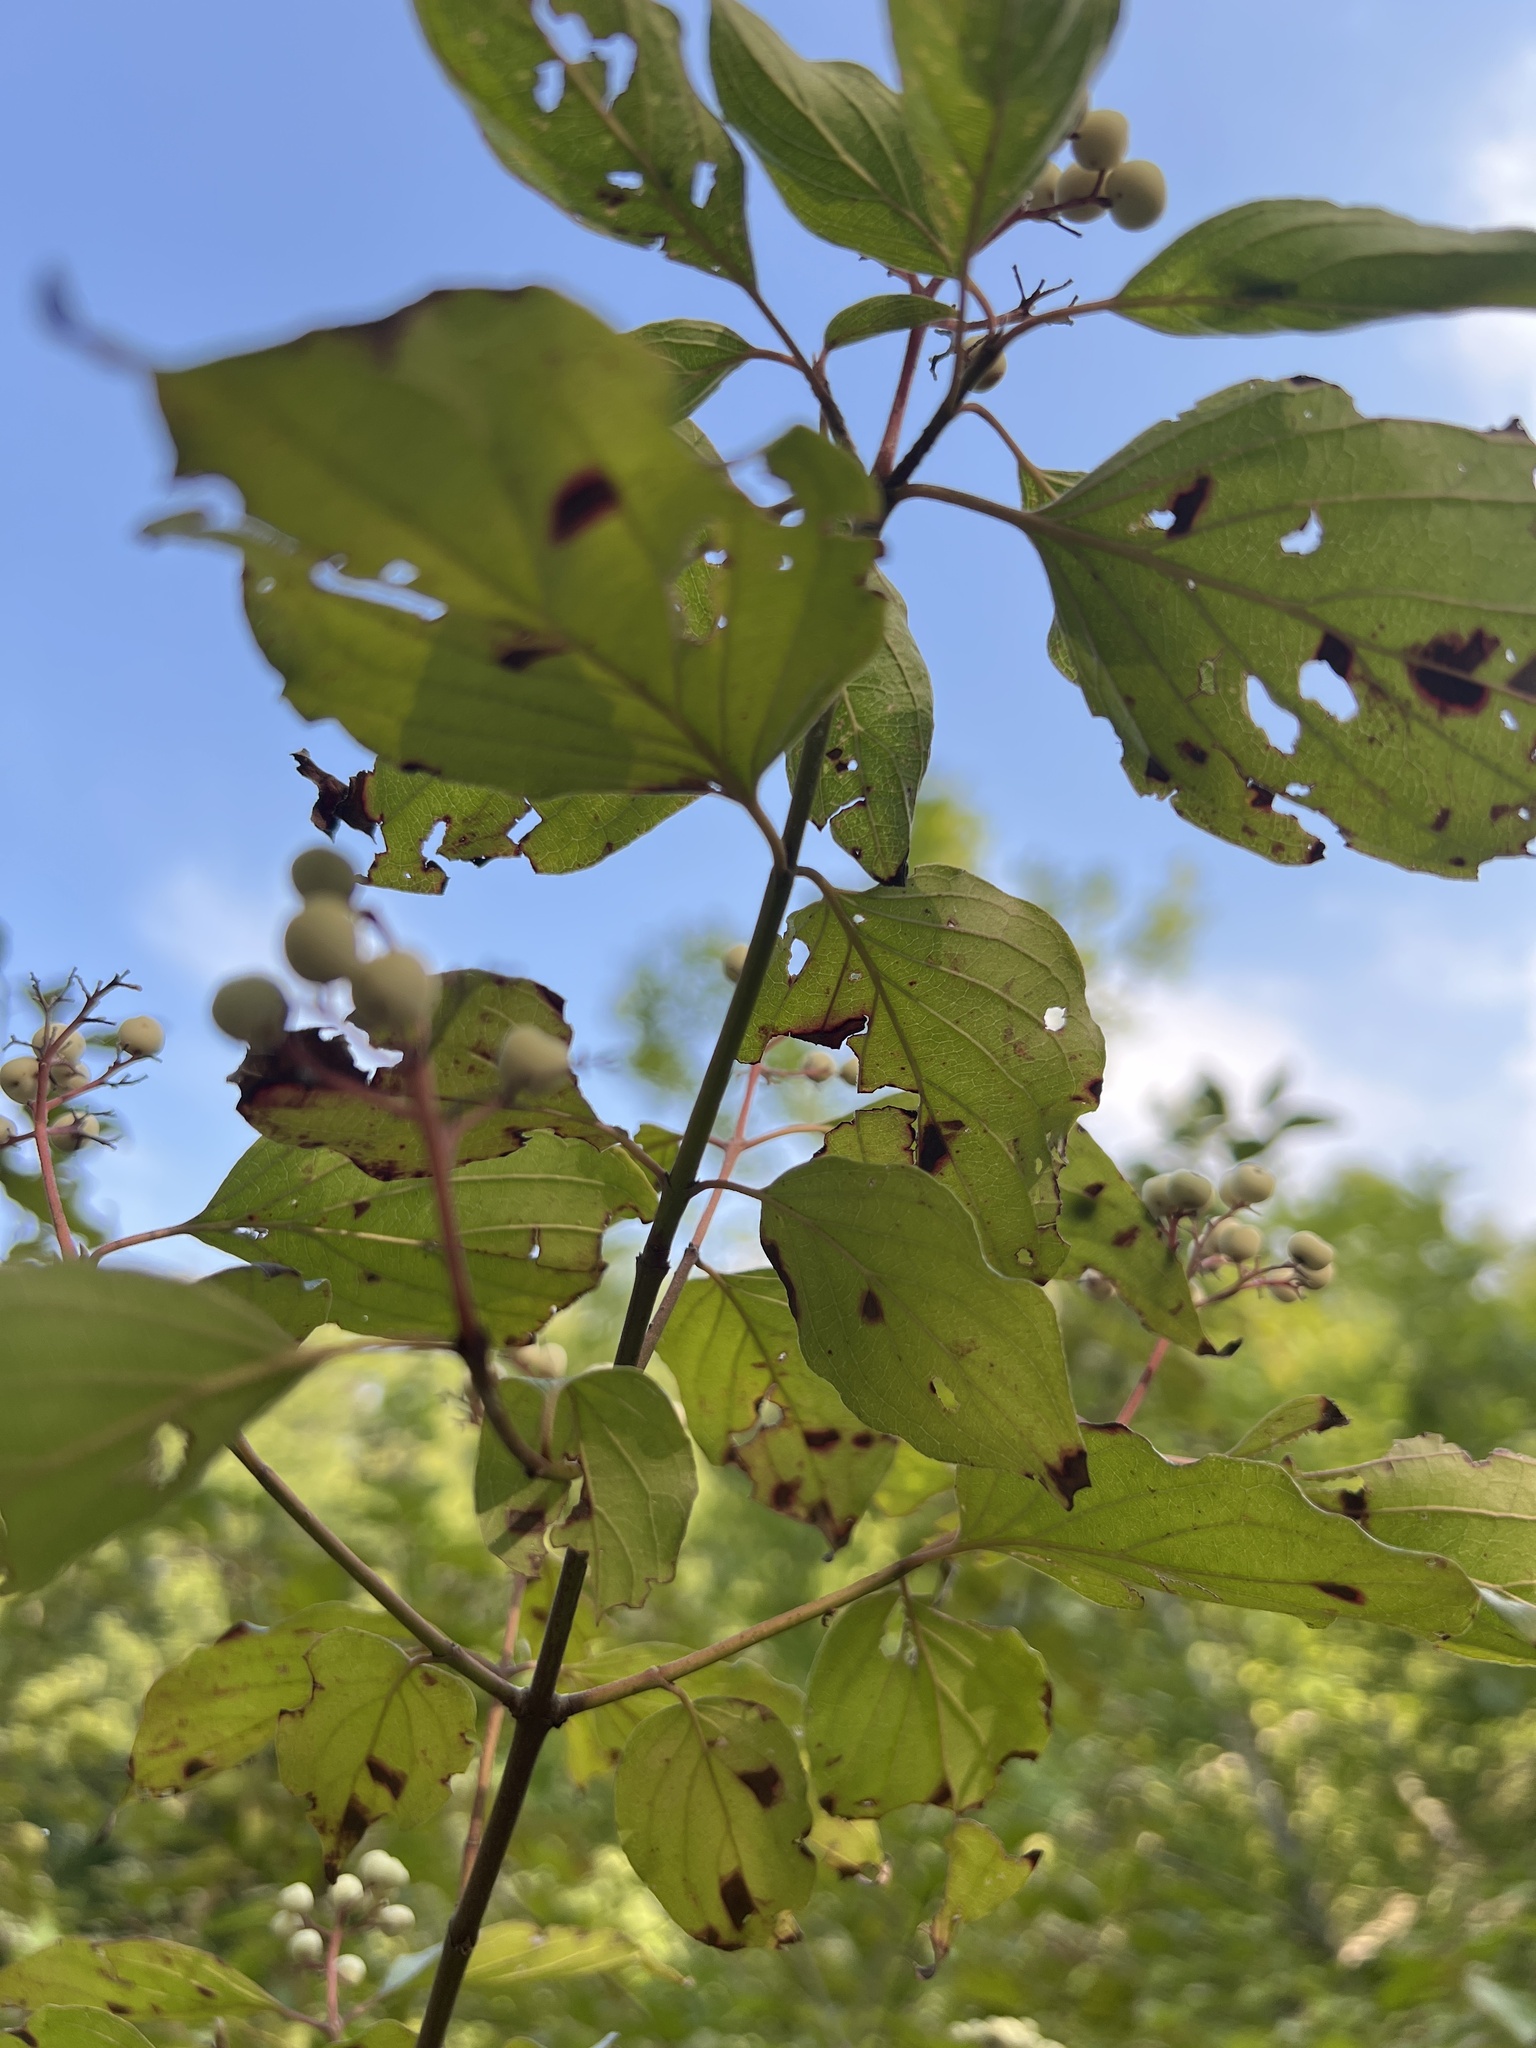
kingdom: Plantae
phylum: Tracheophyta
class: Magnoliopsida
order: Cornales
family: Cornaceae
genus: Cornus
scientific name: Cornus drummondii
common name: Rough-leaf dogwood
